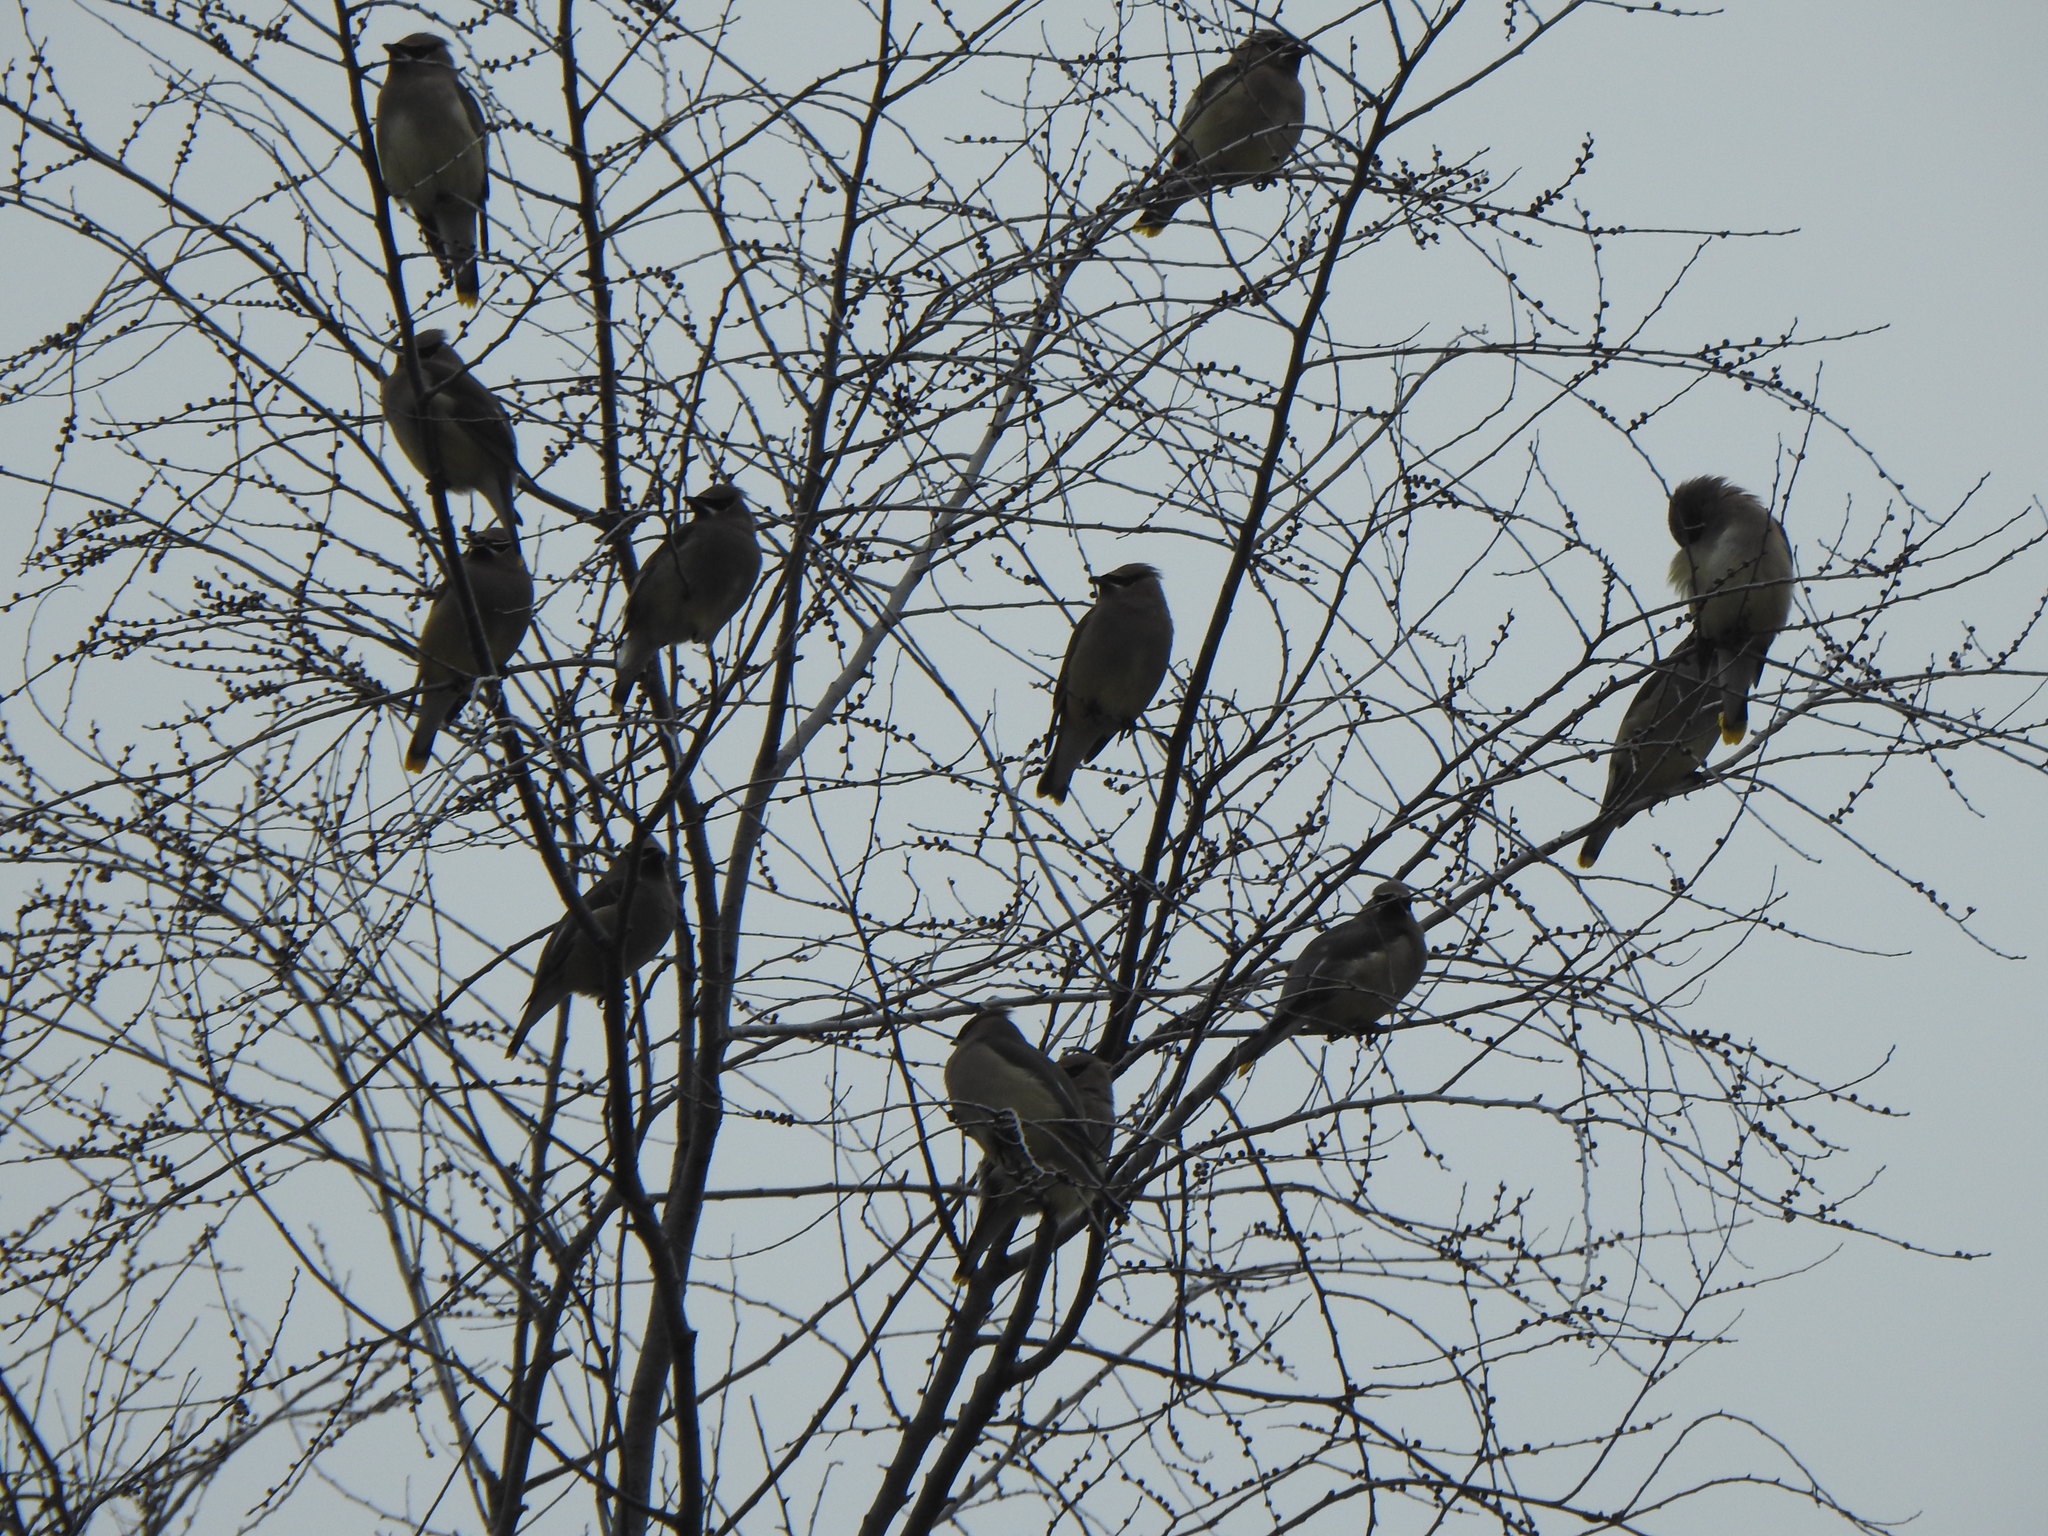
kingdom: Animalia
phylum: Chordata
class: Aves
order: Passeriformes
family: Bombycillidae
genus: Bombycilla
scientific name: Bombycilla cedrorum
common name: Cedar waxwing
